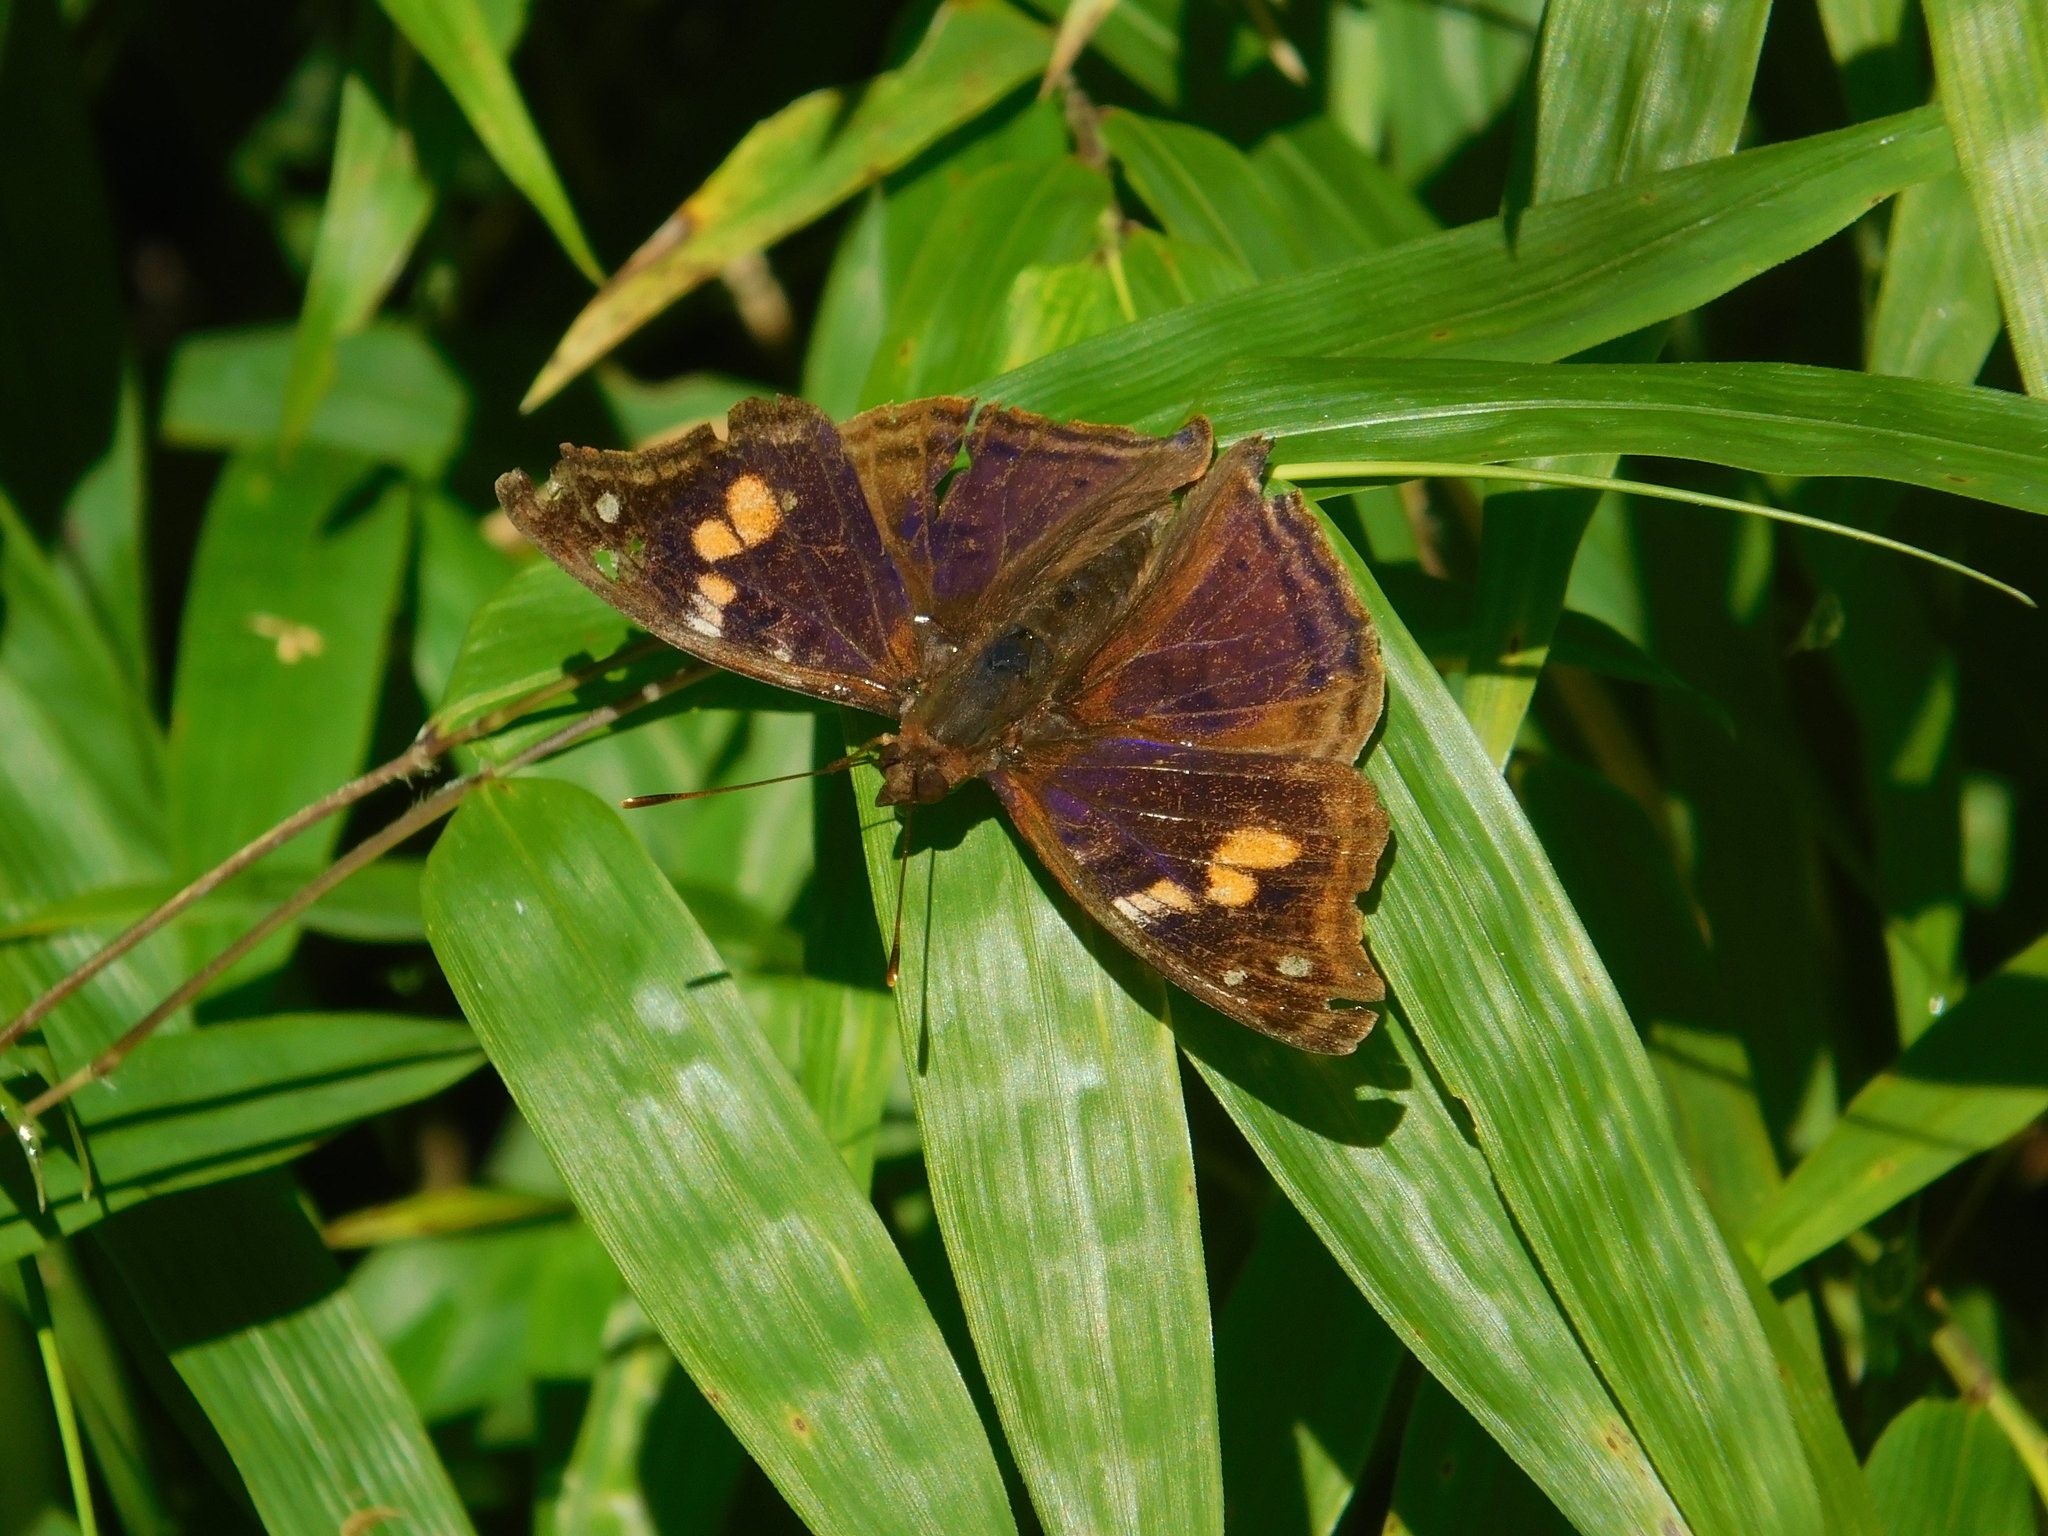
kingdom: Animalia
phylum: Arthropoda
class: Insecta
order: Lepidoptera
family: Nymphalidae
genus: Doxocopa
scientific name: Doxocopa agathina
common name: Agathina emperor
